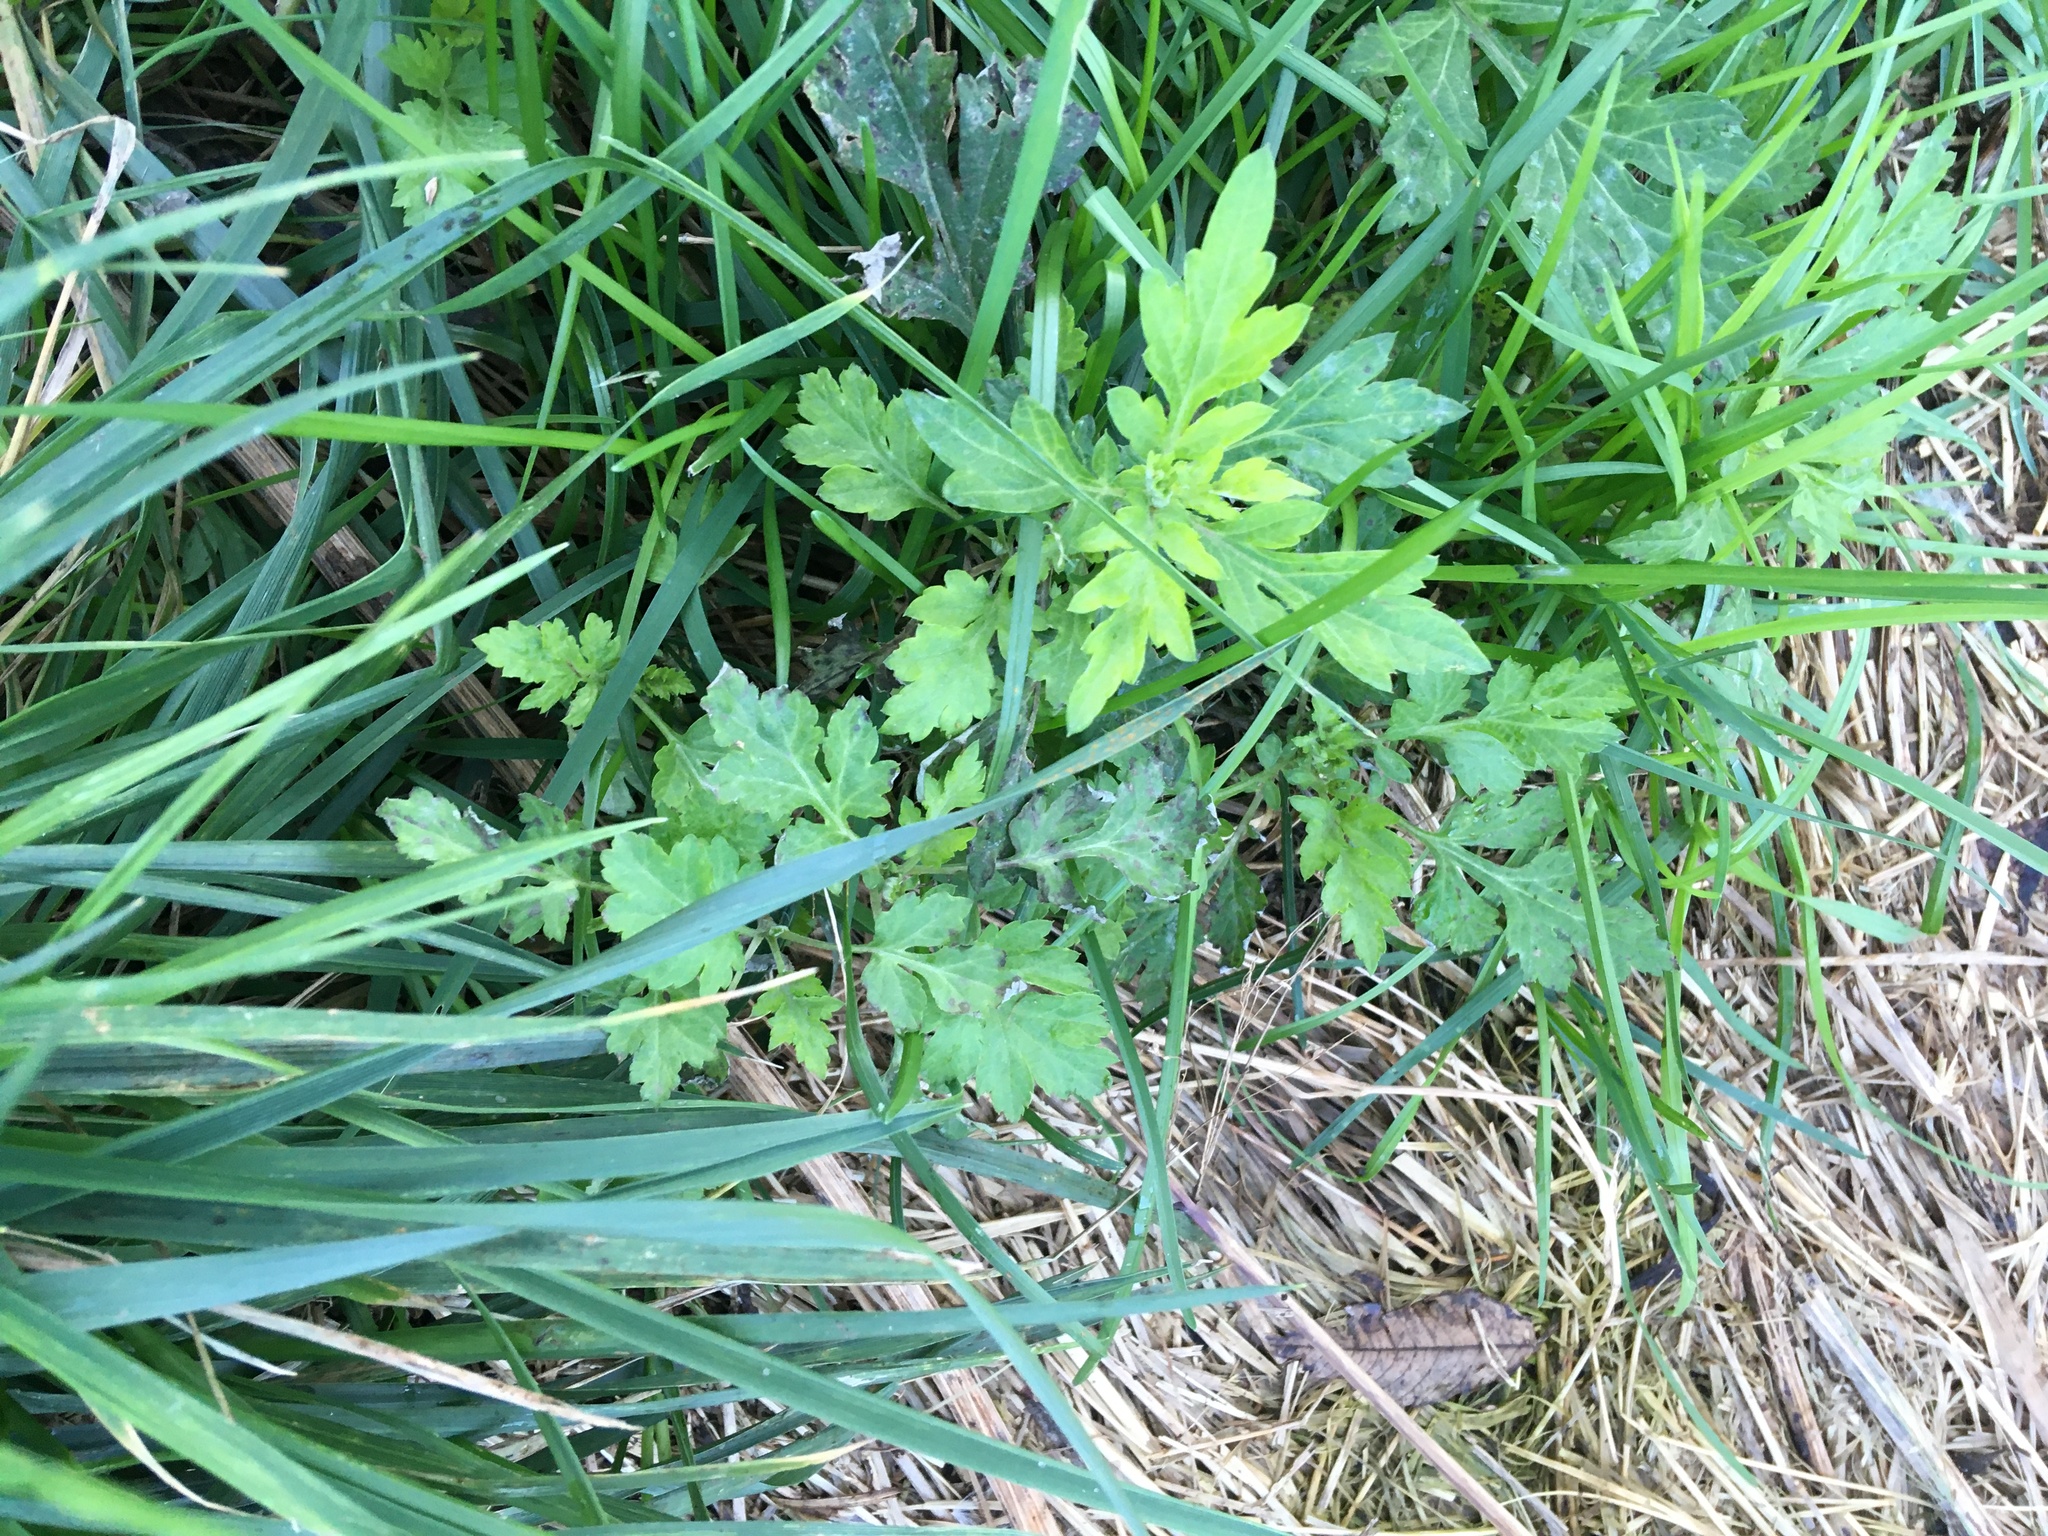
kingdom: Plantae
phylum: Tracheophyta
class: Magnoliopsida
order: Asterales
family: Asteraceae
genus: Artemisia
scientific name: Artemisia vulgaris
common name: Mugwort
